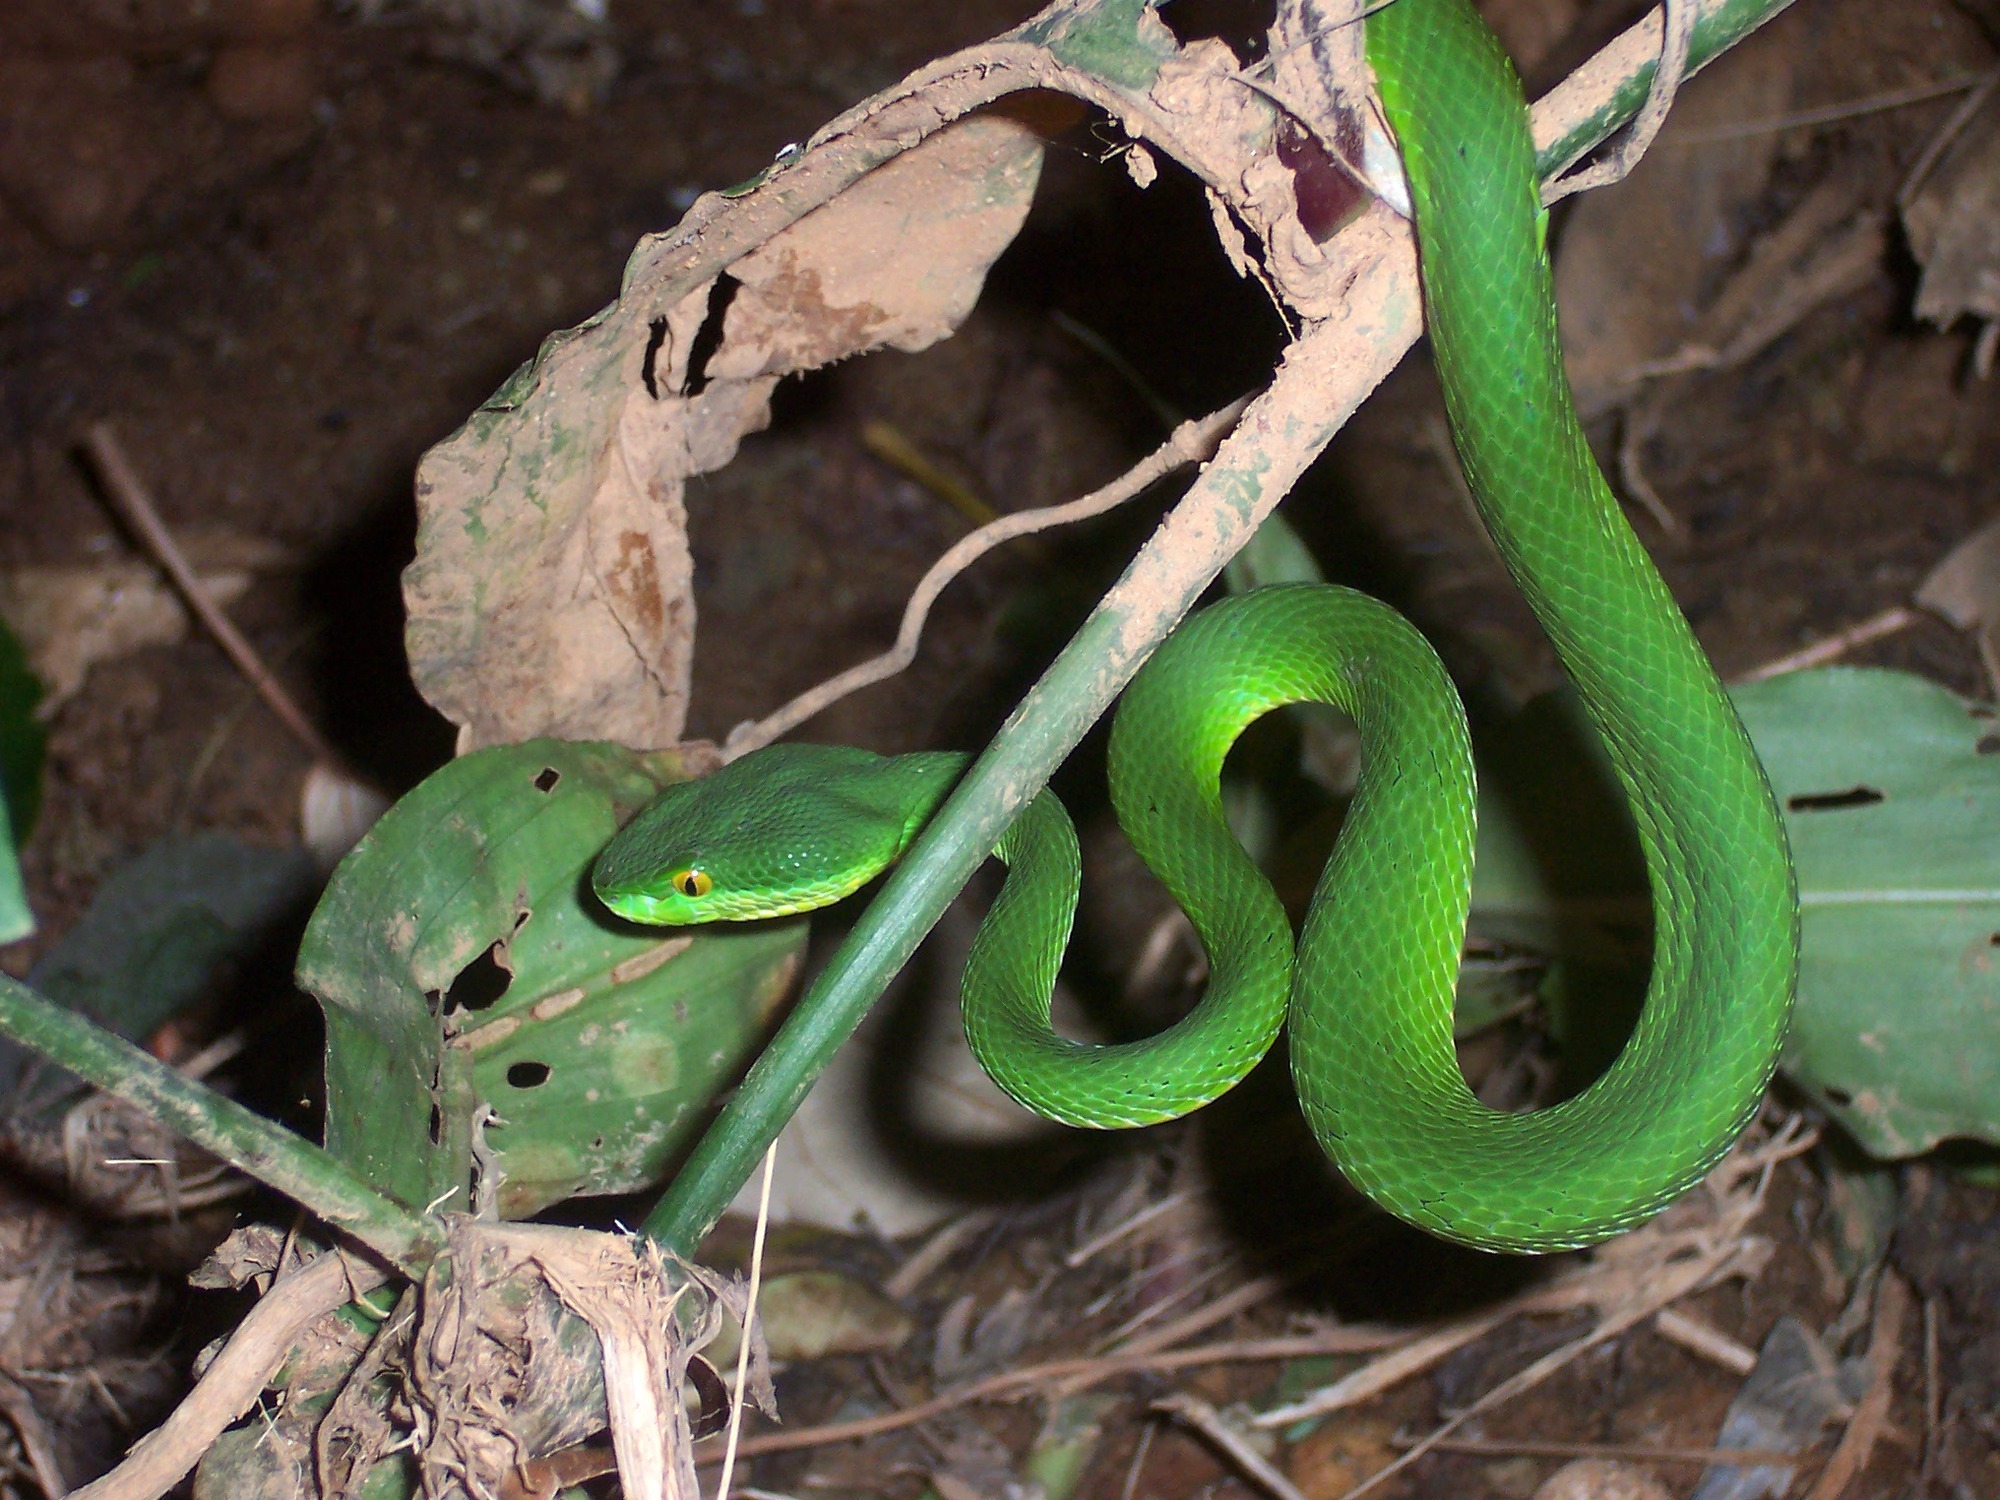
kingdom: Animalia
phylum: Chordata
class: Squamata
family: Viperidae
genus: Trimeresurus
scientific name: Trimeresurus albolabris
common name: White-lipped pitviper
